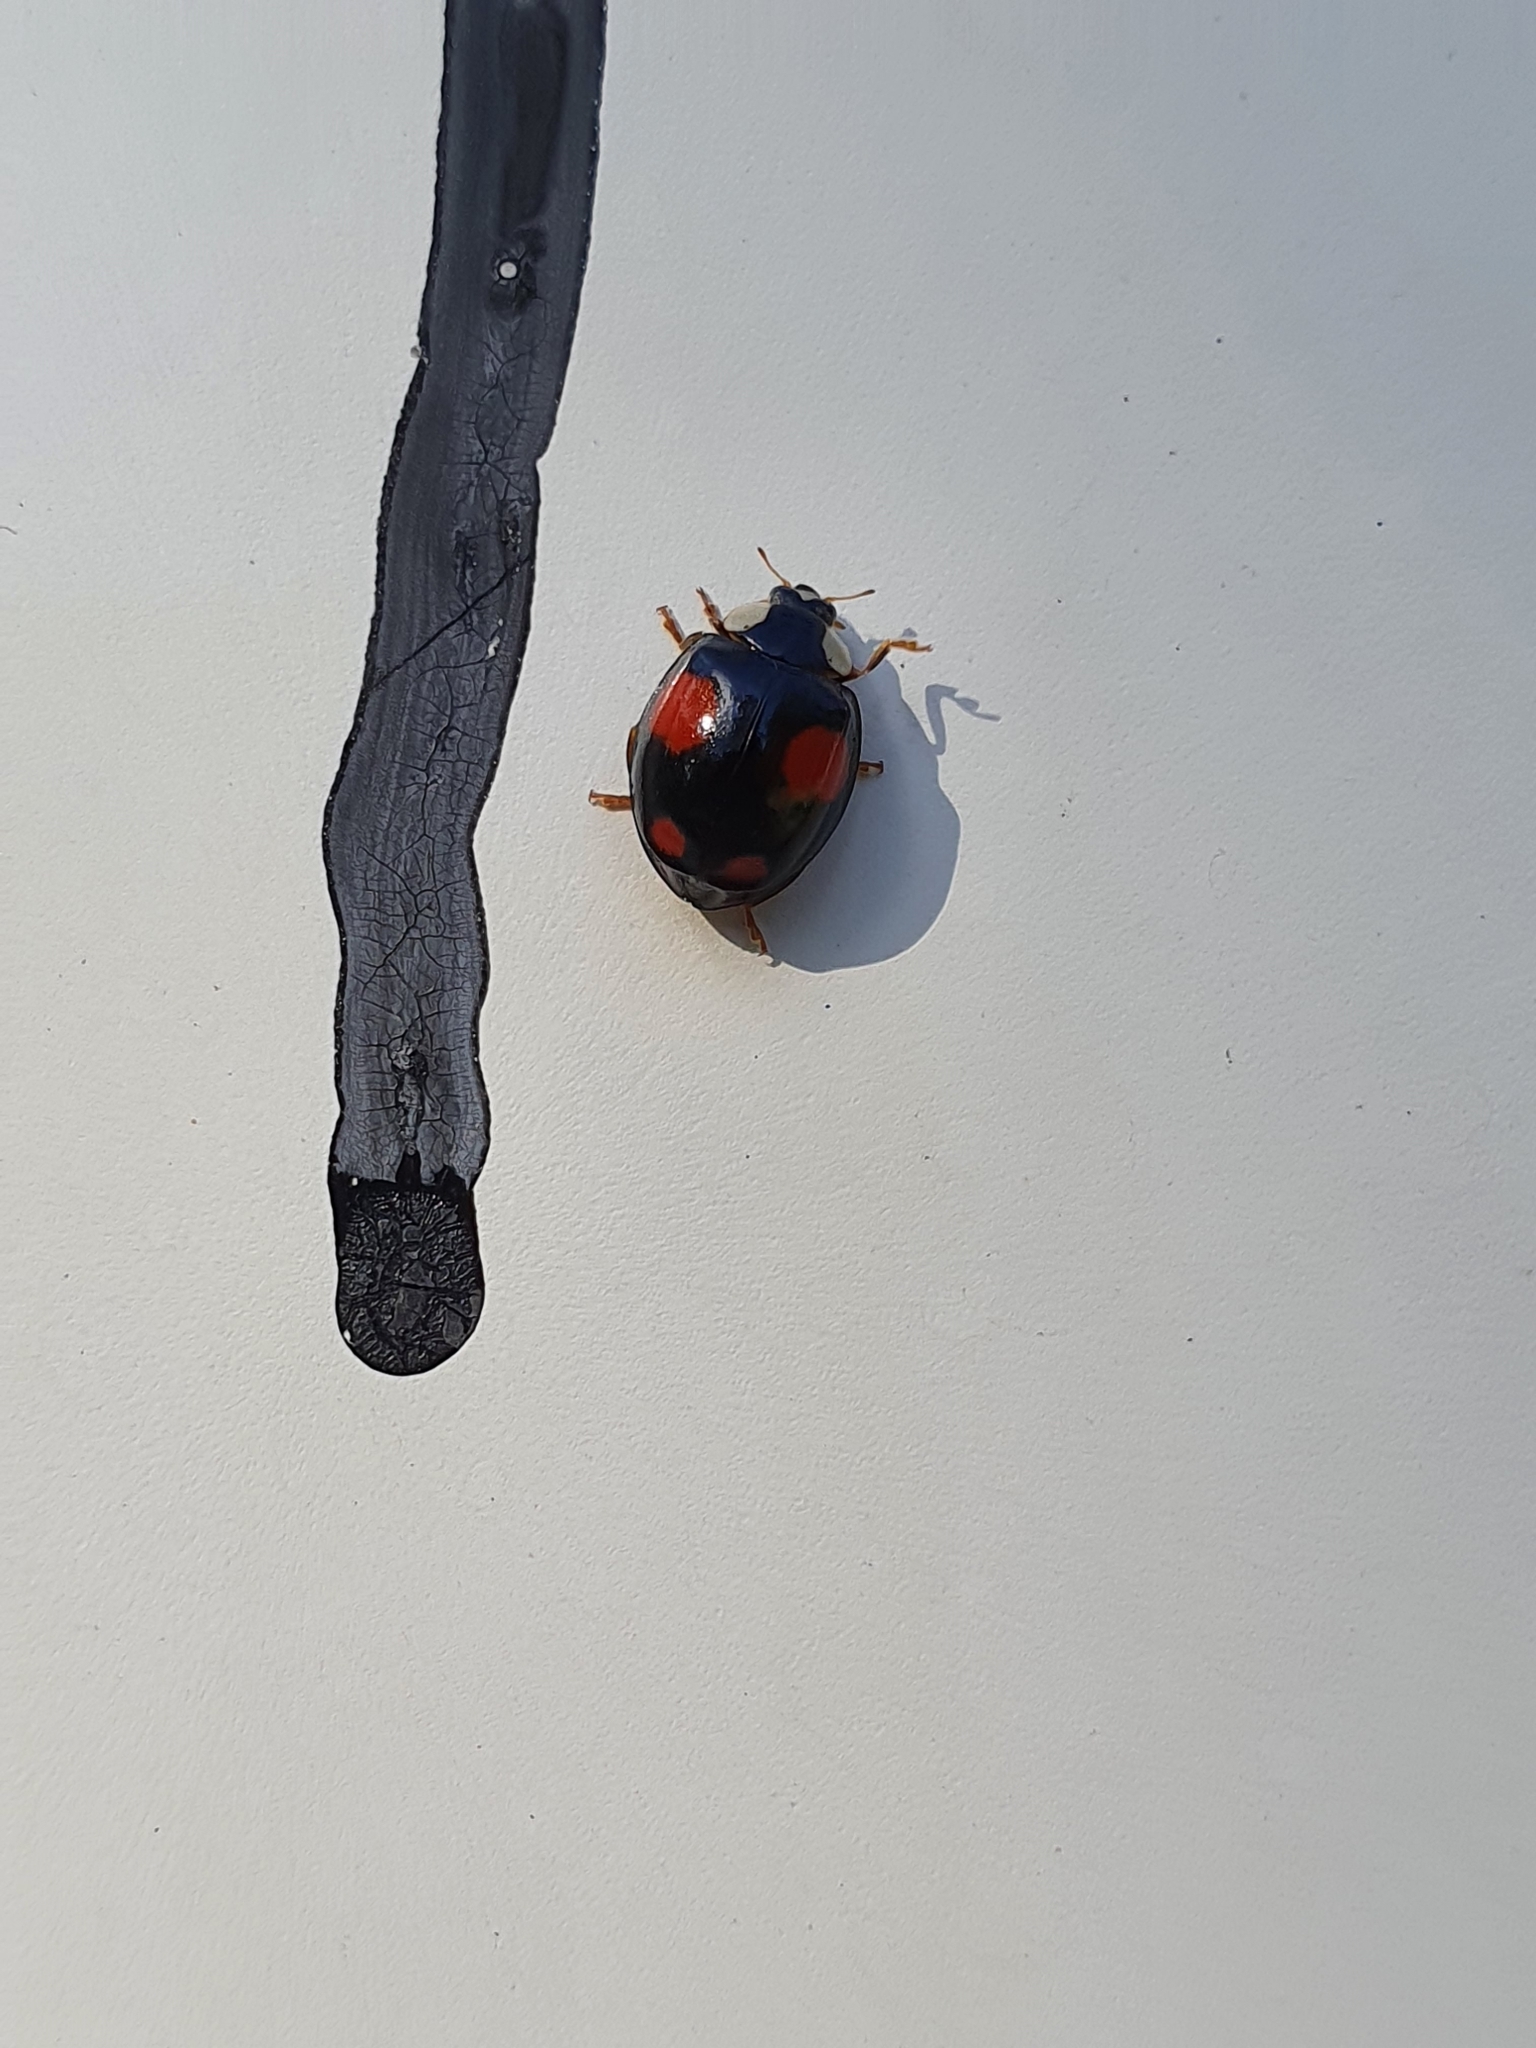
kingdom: Animalia
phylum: Arthropoda
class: Insecta
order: Coleoptera
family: Coccinellidae
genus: Harmonia
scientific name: Harmonia axyridis
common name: Harlequin ladybird
